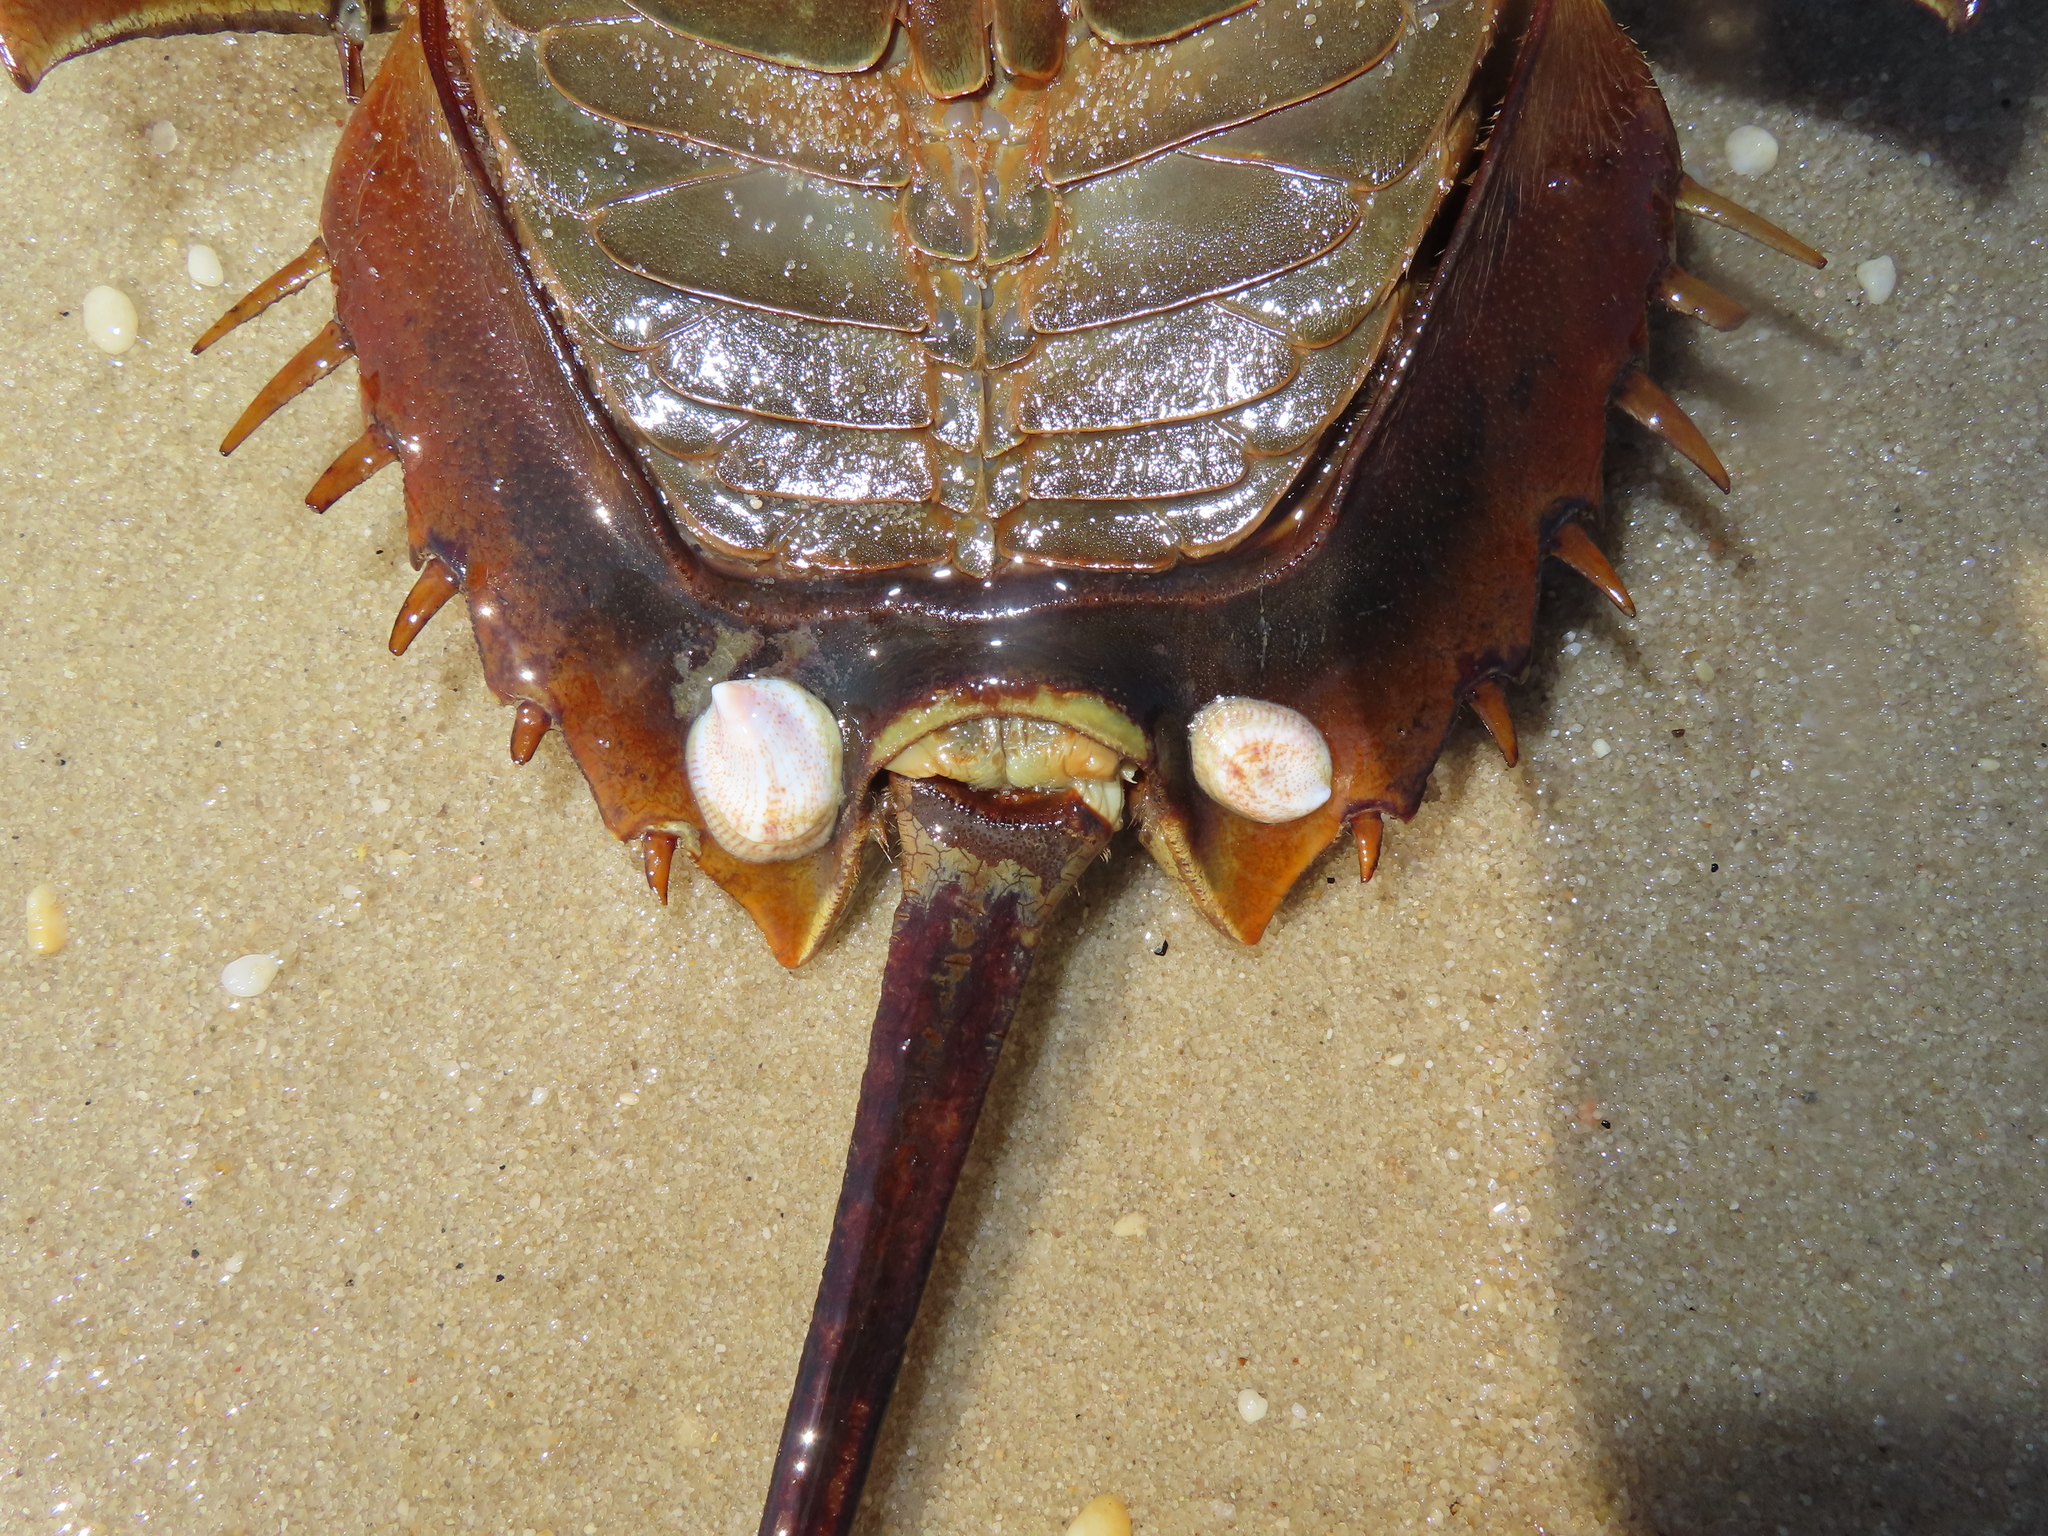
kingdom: Animalia
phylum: Mollusca
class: Gastropoda
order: Littorinimorpha
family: Calyptraeidae
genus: Crepidula
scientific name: Crepidula fornicata
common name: Slipper limpet
